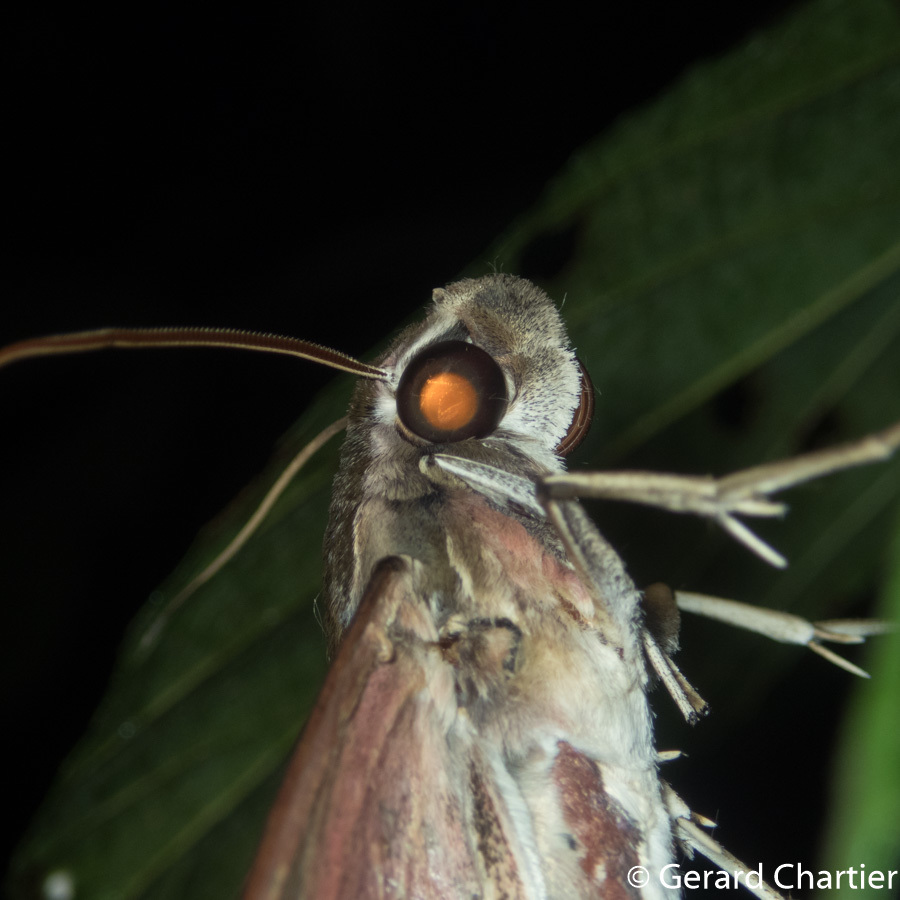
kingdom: Animalia
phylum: Arthropoda
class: Insecta
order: Lepidoptera
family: Sphingidae
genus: Elibia
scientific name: Elibia dolichus
